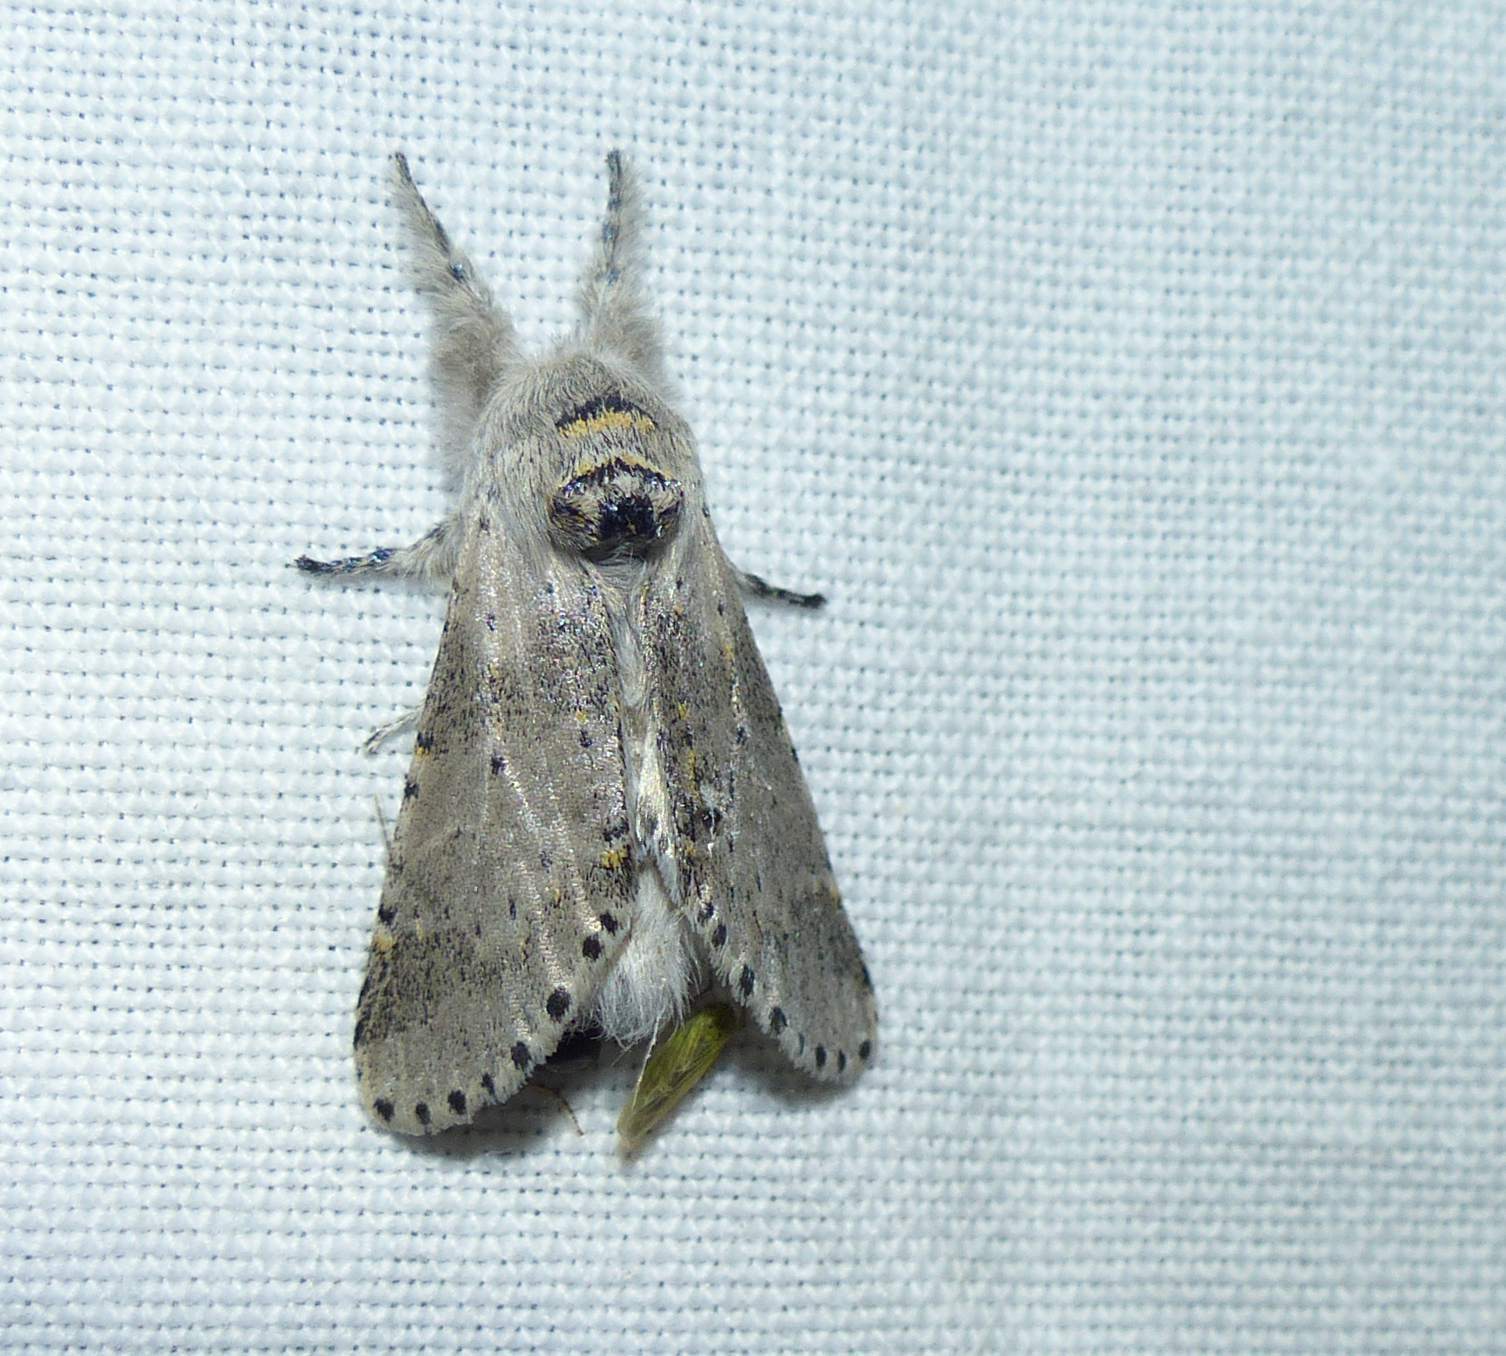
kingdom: Animalia
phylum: Arthropoda
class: Insecta
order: Lepidoptera
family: Notodontidae
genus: Furcula
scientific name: Furcula cinerea
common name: Gray furcula
